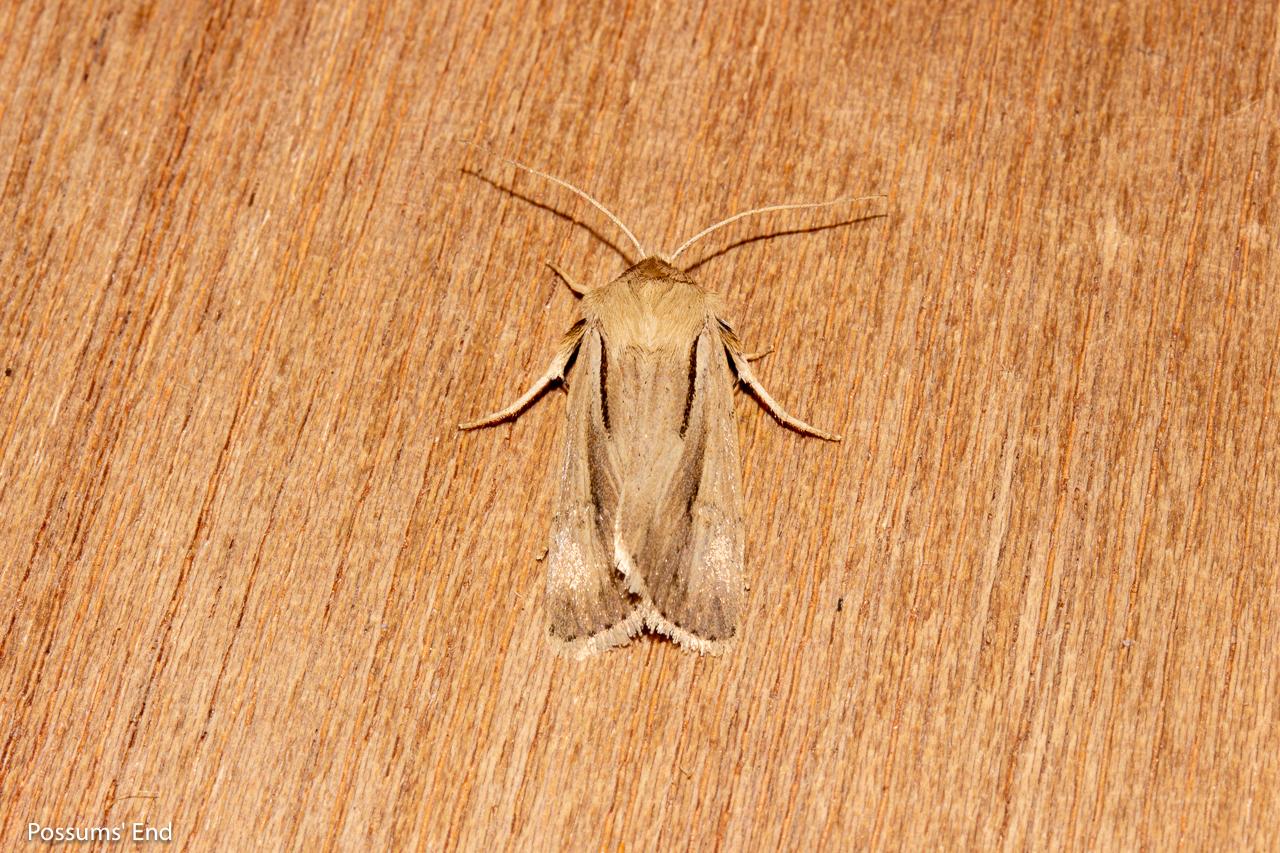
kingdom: Animalia
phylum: Arthropoda
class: Insecta
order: Lepidoptera
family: Noctuidae
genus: Ichneutica
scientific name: Ichneutica propria
